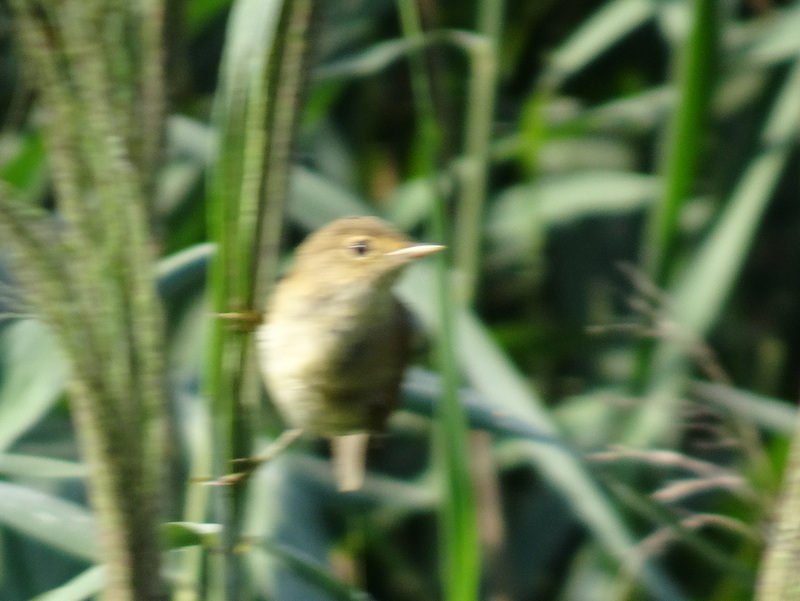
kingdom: Animalia
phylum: Chordata
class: Aves
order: Passeriformes
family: Acrocephalidae
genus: Acrocephalus
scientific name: Acrocephalus scirpaceus
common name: Eurasian reed warbler
